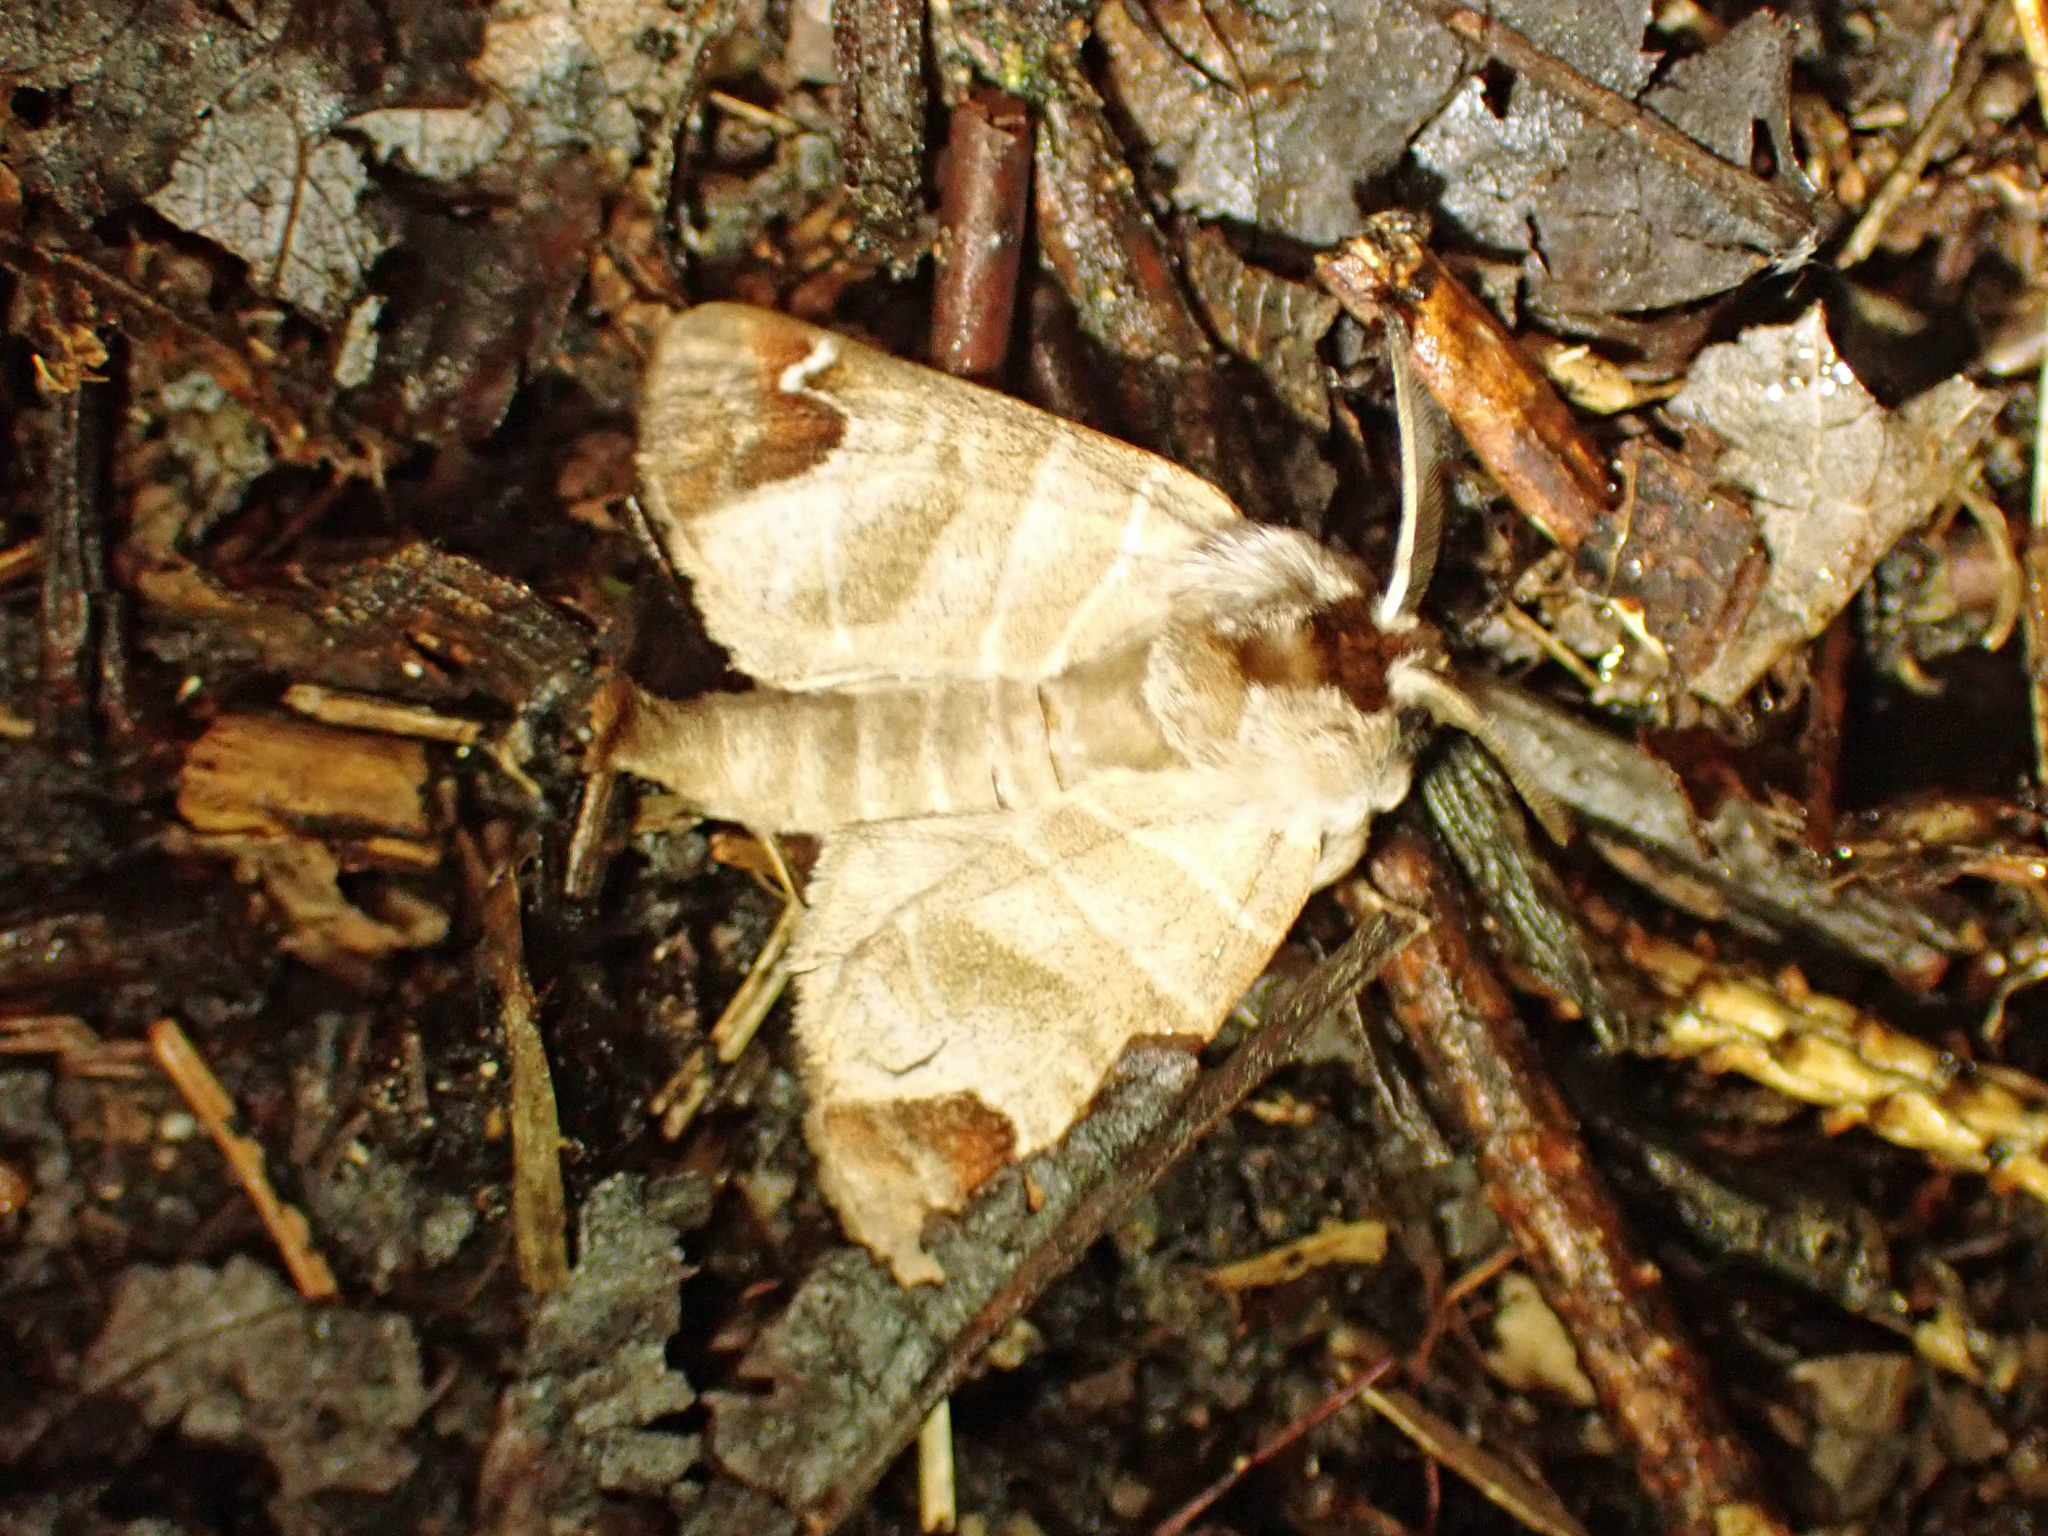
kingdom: Animalia
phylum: Arthropoda
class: Insecta
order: Lepidoptera
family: Notodontidae
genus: Clostera
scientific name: Clostera albosigma
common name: Sigmoid prominent
